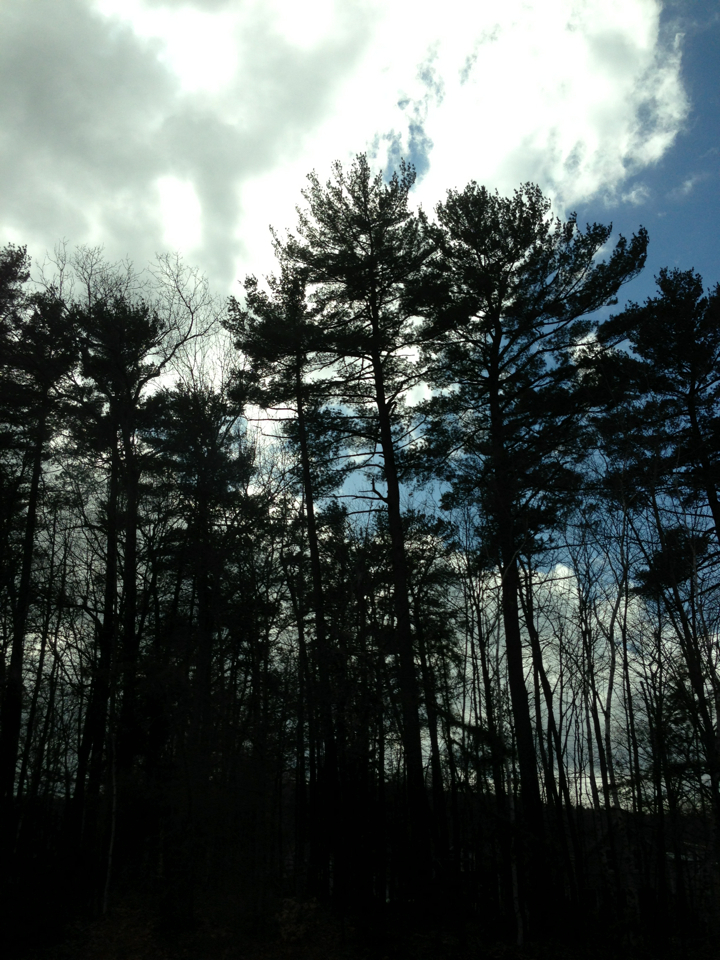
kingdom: Plantae
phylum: Tracheophyta
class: Pinopsida
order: Pinales
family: Pinaceae
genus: Pinus
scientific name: Pinus strobus
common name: Weymouth pine
